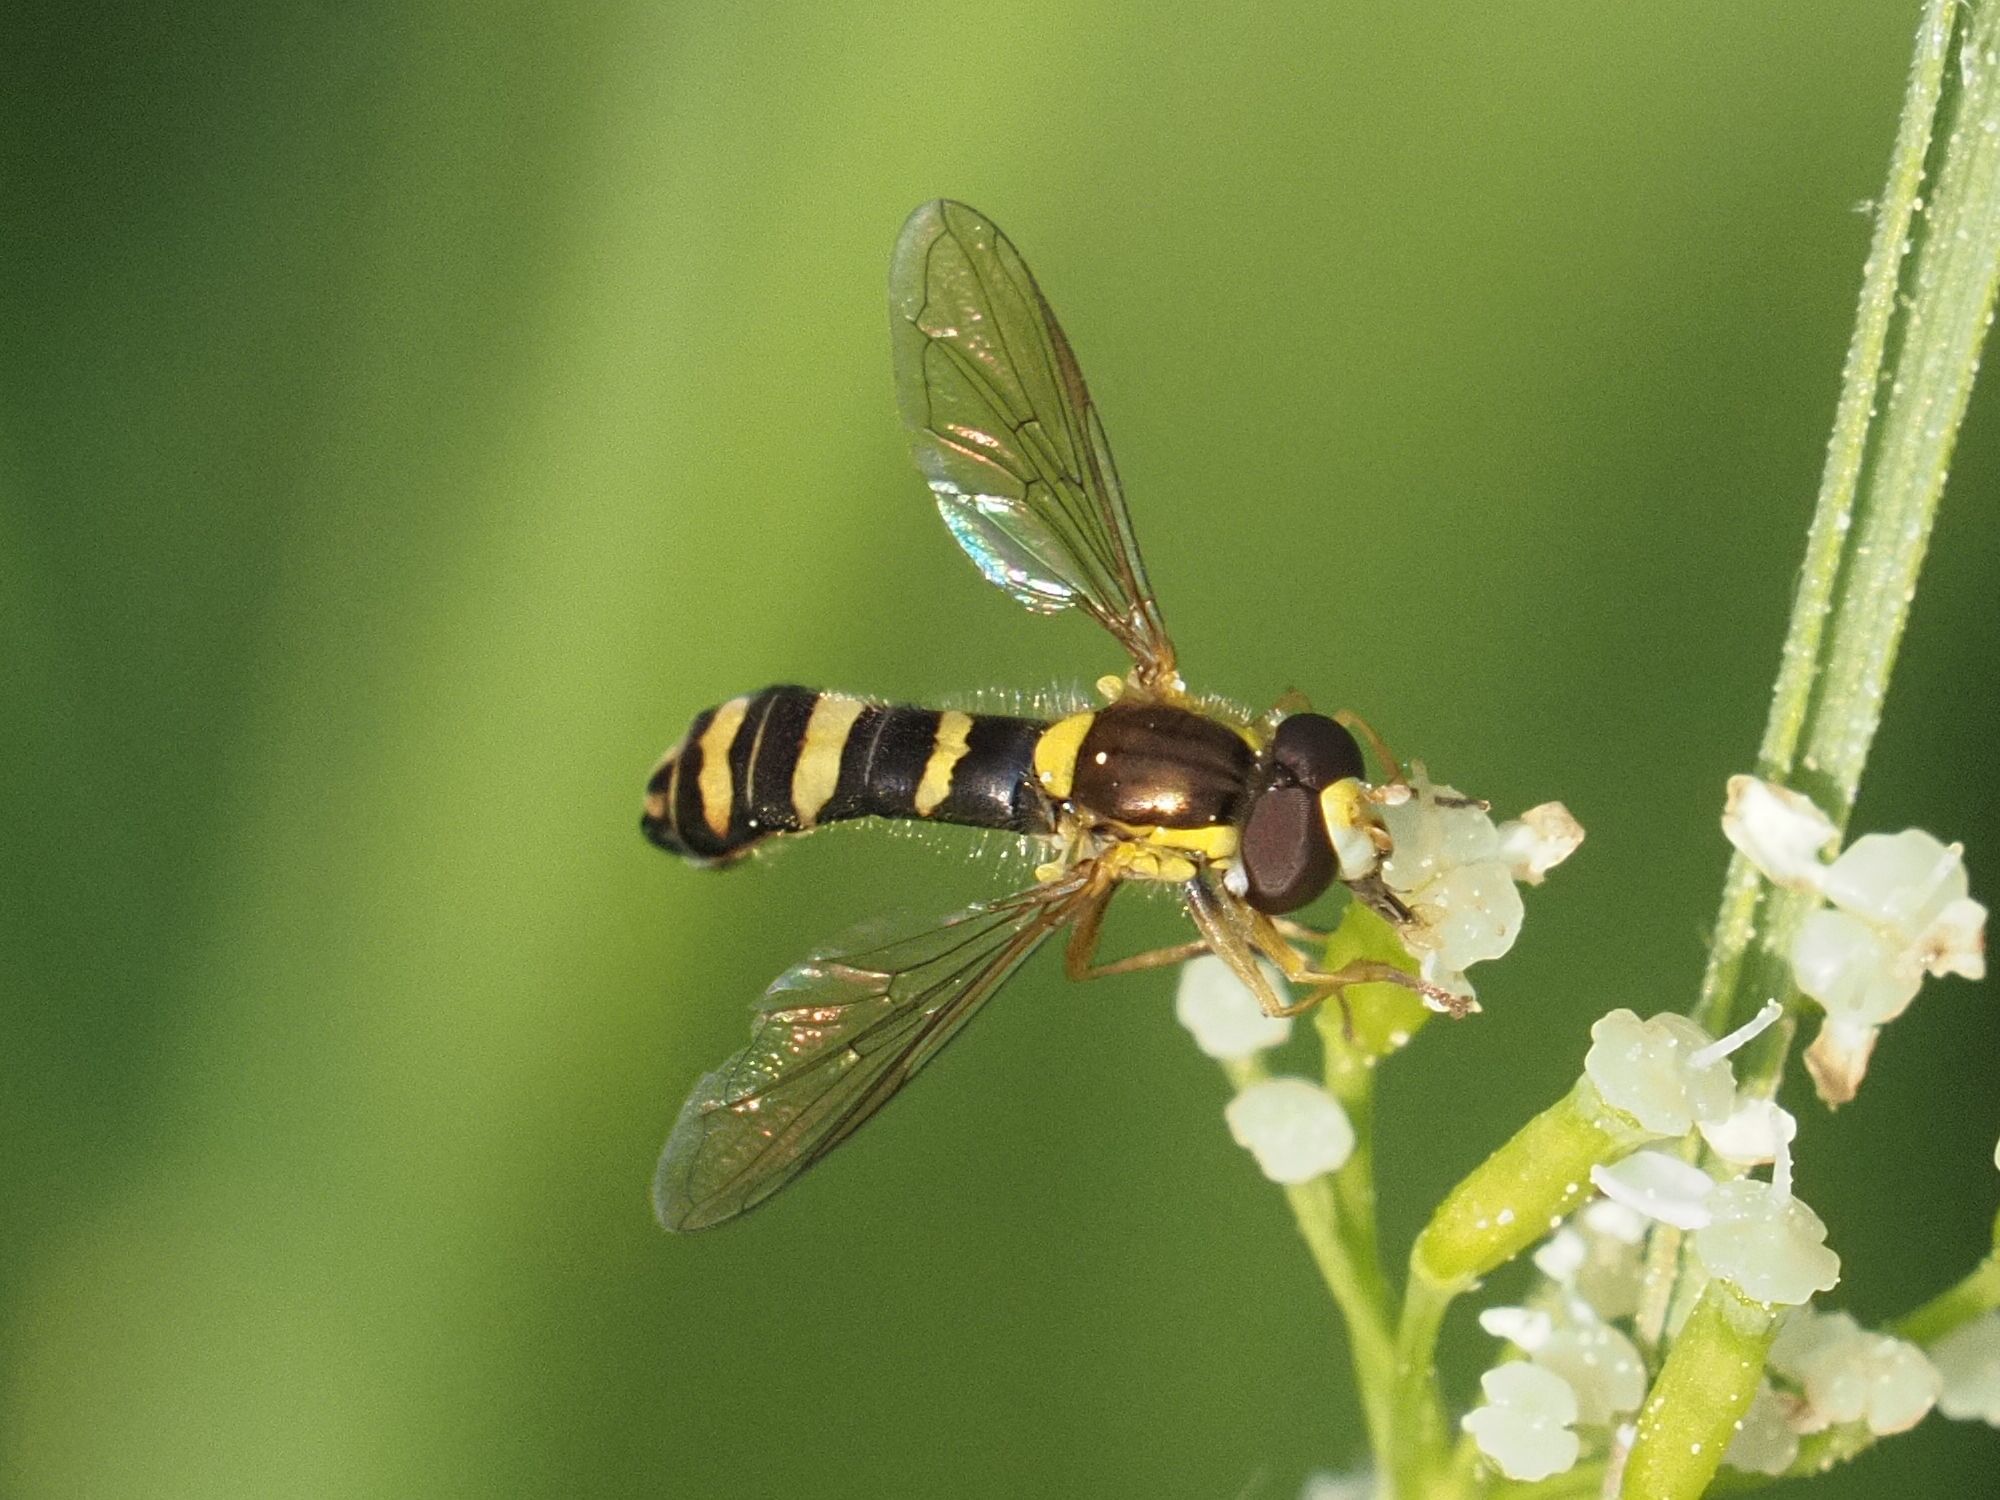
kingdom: Animalia
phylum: Arthropoda
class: Insecta
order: Diptera
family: Syrphidae
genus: Sphaerophoria
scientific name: Sphaerophoria
